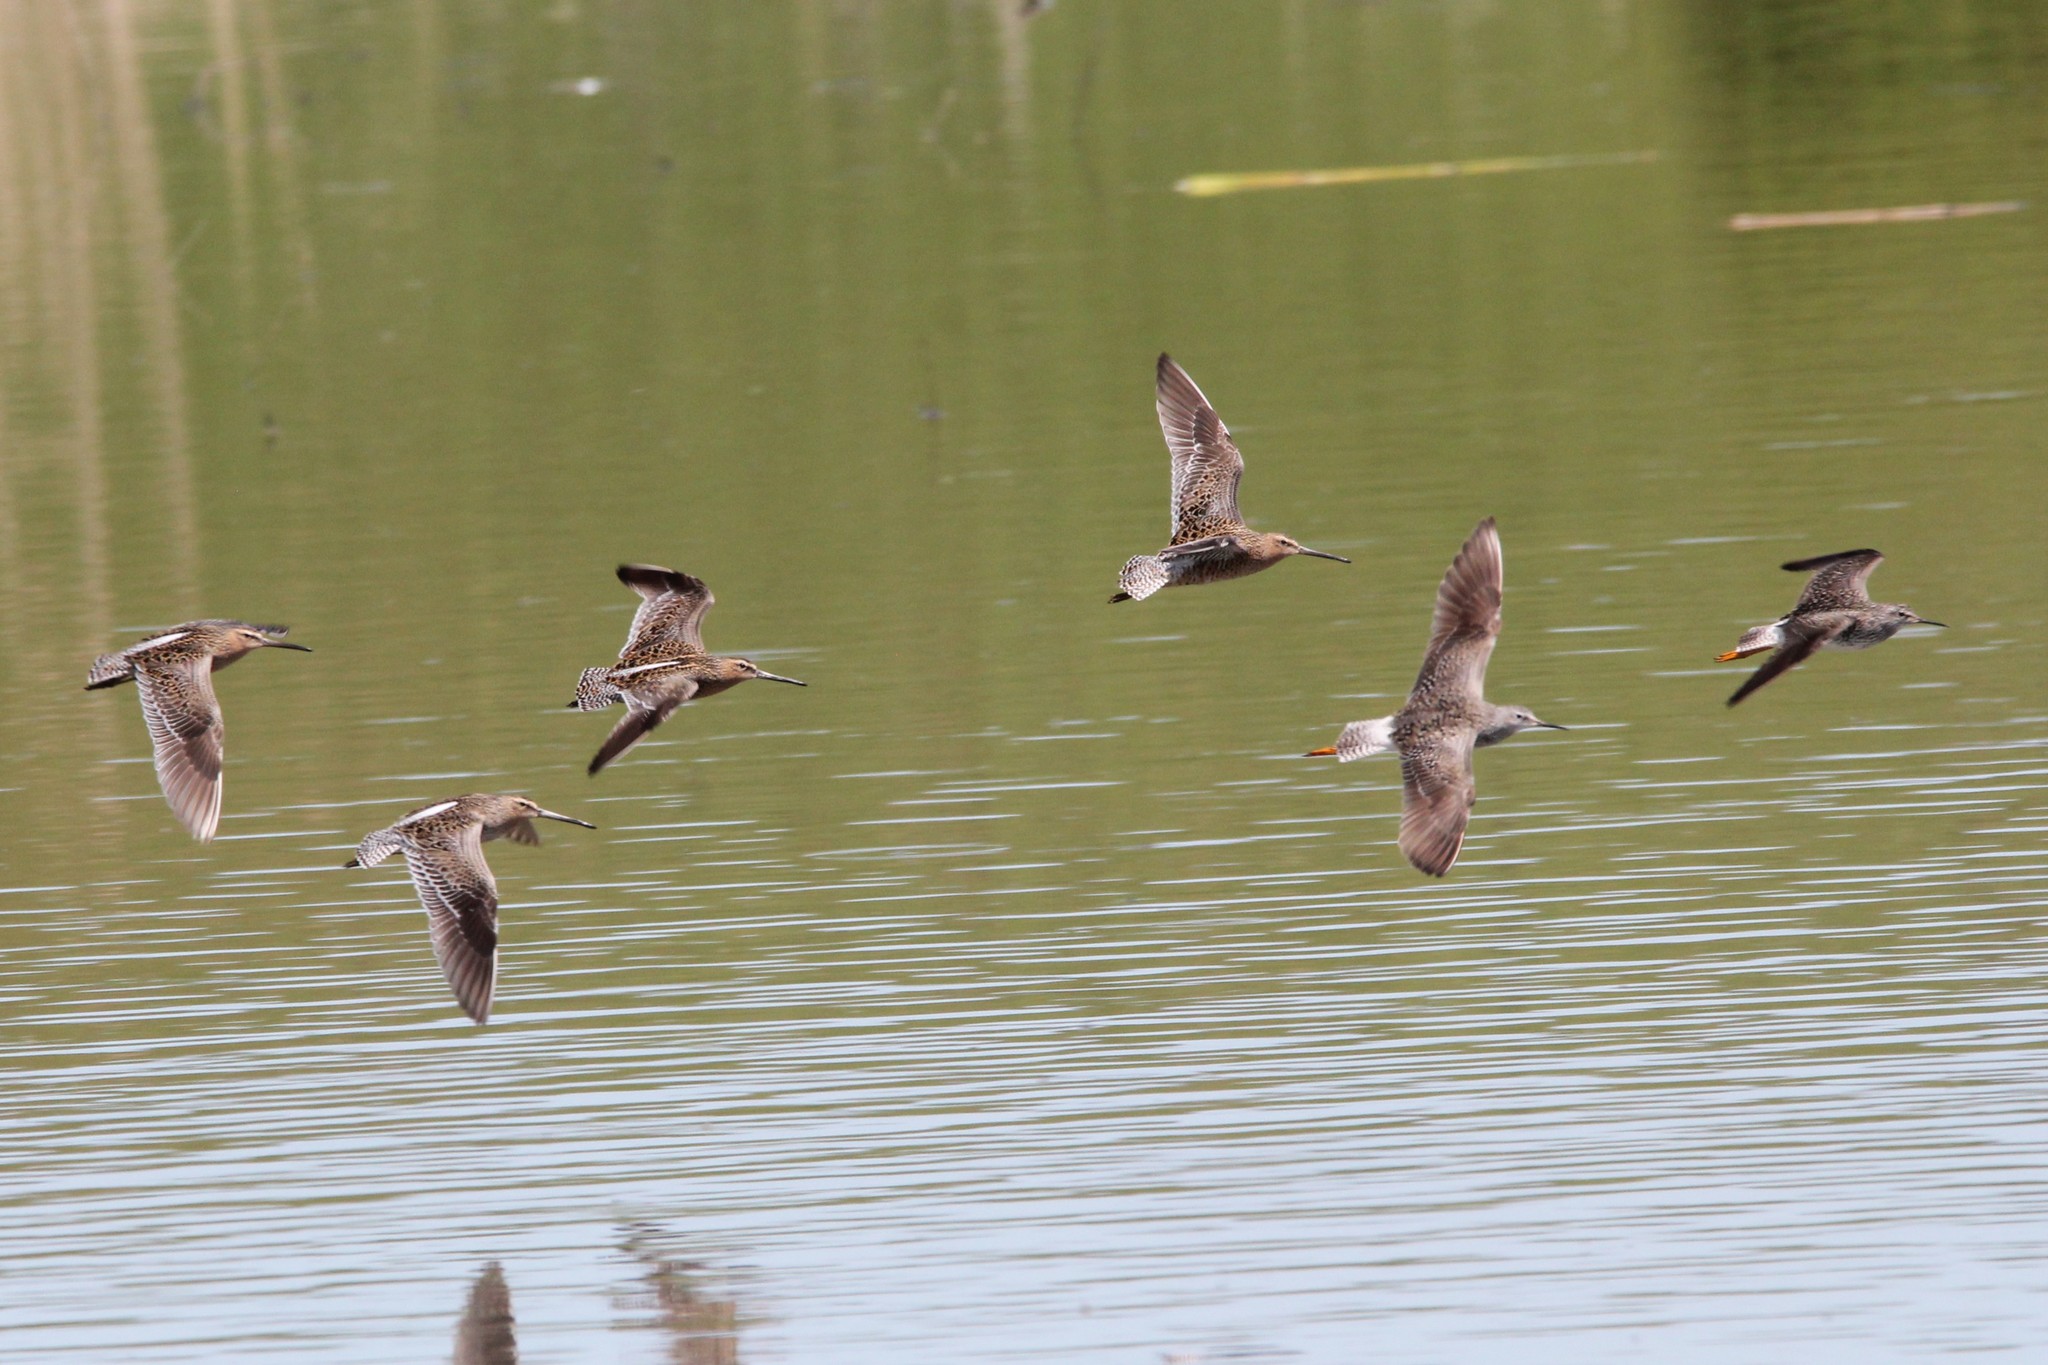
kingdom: Animalia
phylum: Chordata
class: Aves
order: Charadriiformes
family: Scolopacidae
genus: Limnodromus
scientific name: Limnodromus griseus
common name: Short-billed dowitcher
